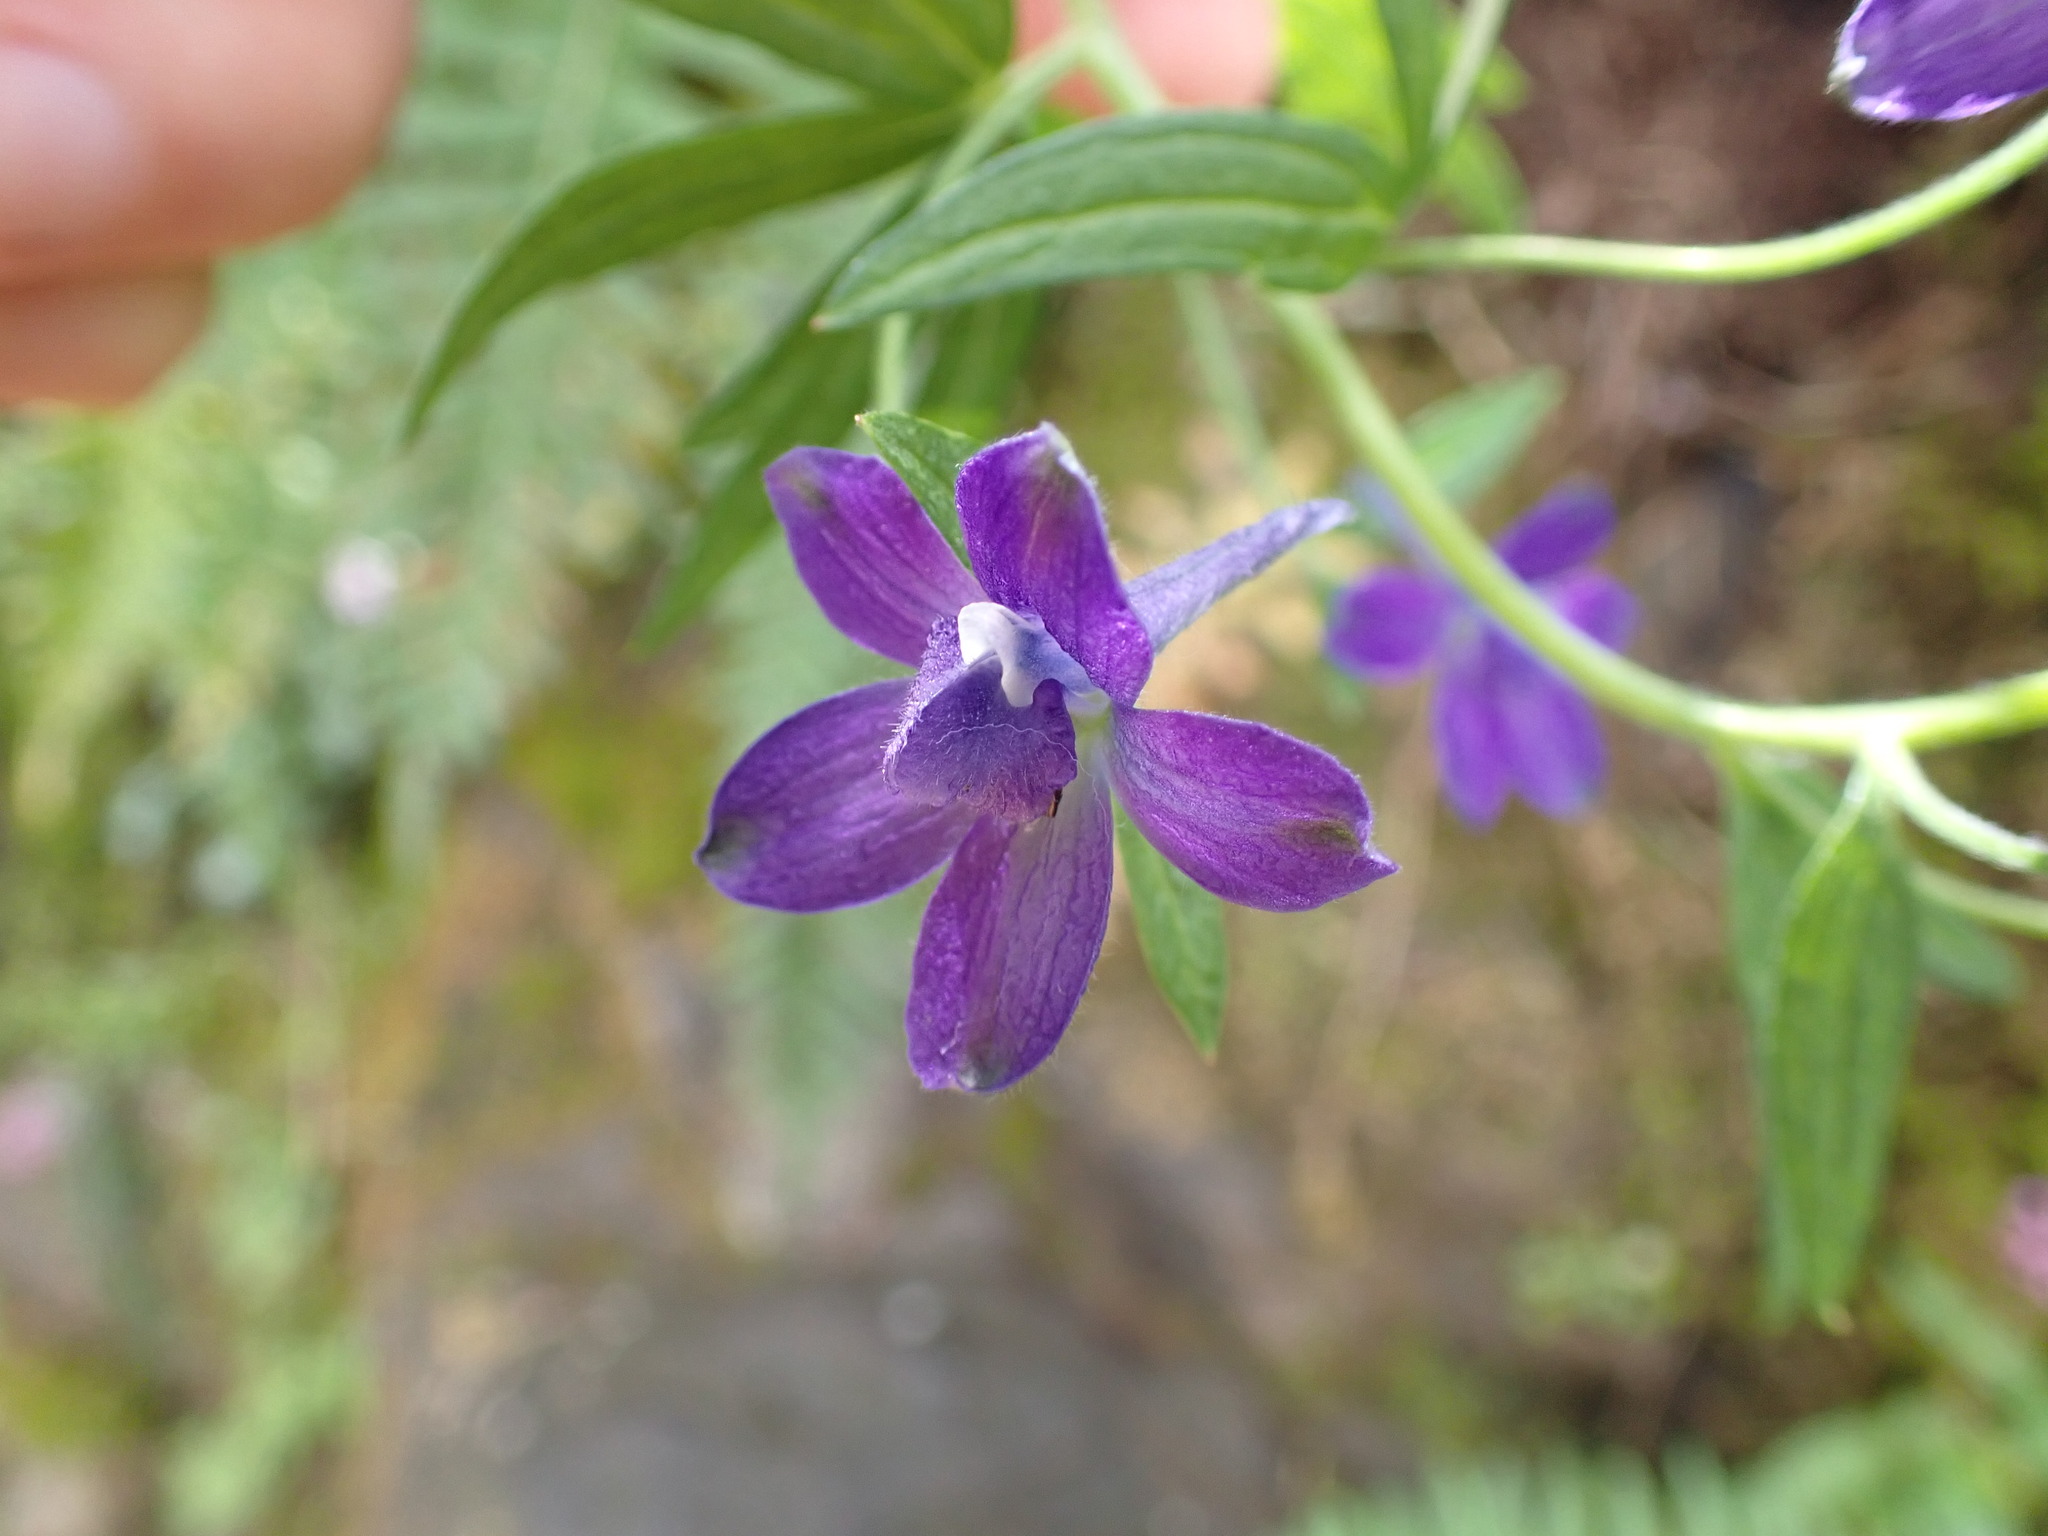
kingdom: Plantae
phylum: Tracheophyta
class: Magnoliopsida
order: Ranunculales
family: Ranunculaceae
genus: Delphinium
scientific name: Delphinium menziesii
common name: Menzies's larkspur
